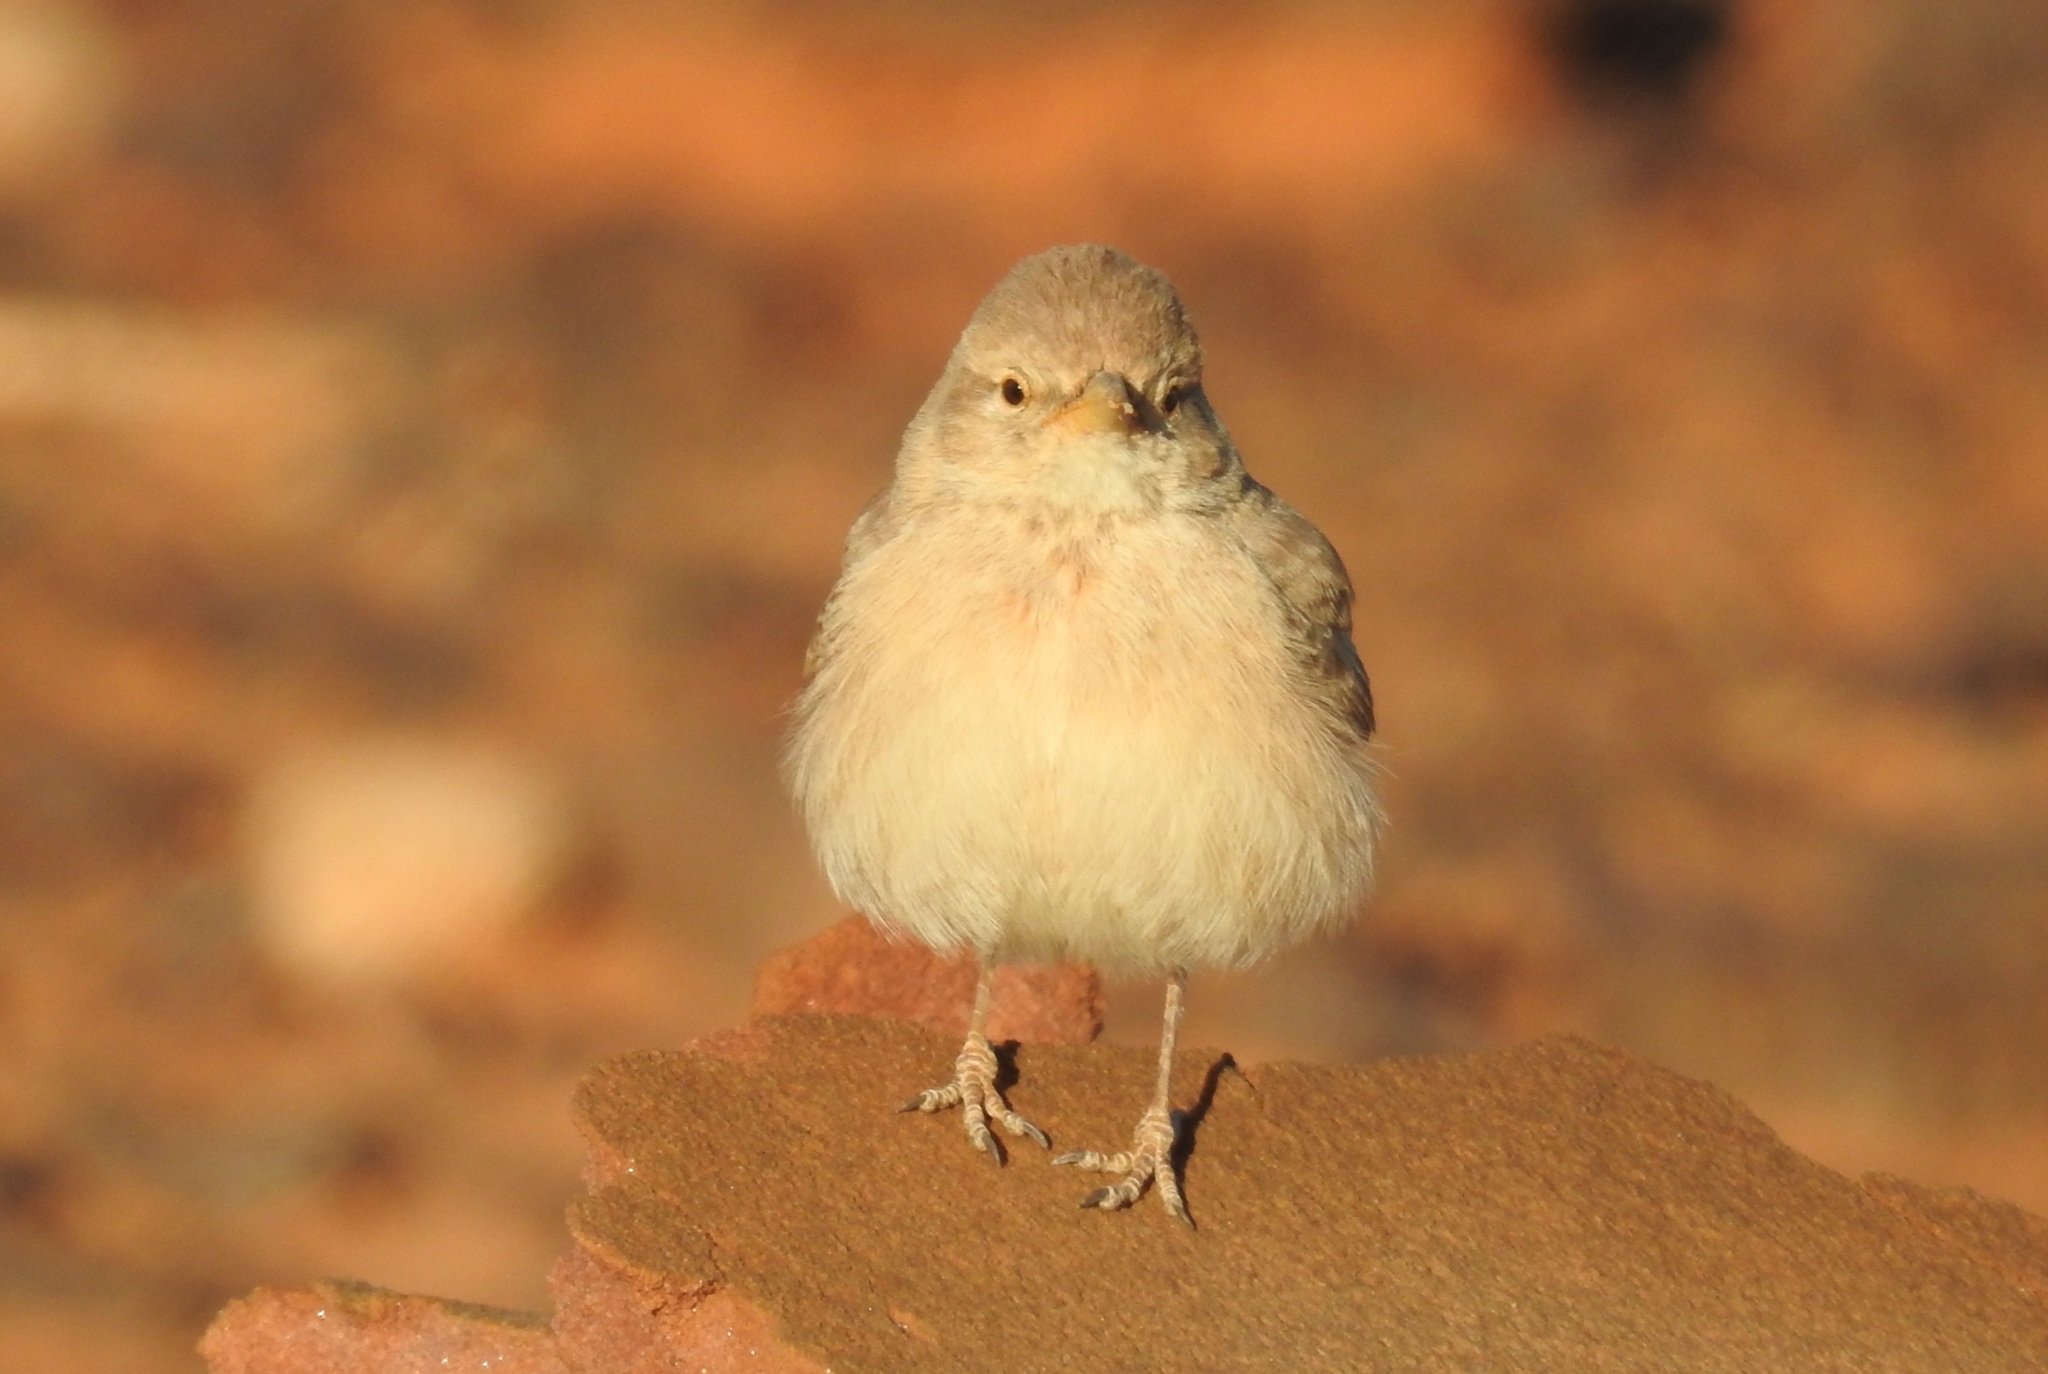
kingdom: Animalia
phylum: Chordata
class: Aves
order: Passeriformes
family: Alaudidae
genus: Ammomanes
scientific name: Ammomanes deserti
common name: Desert lark
